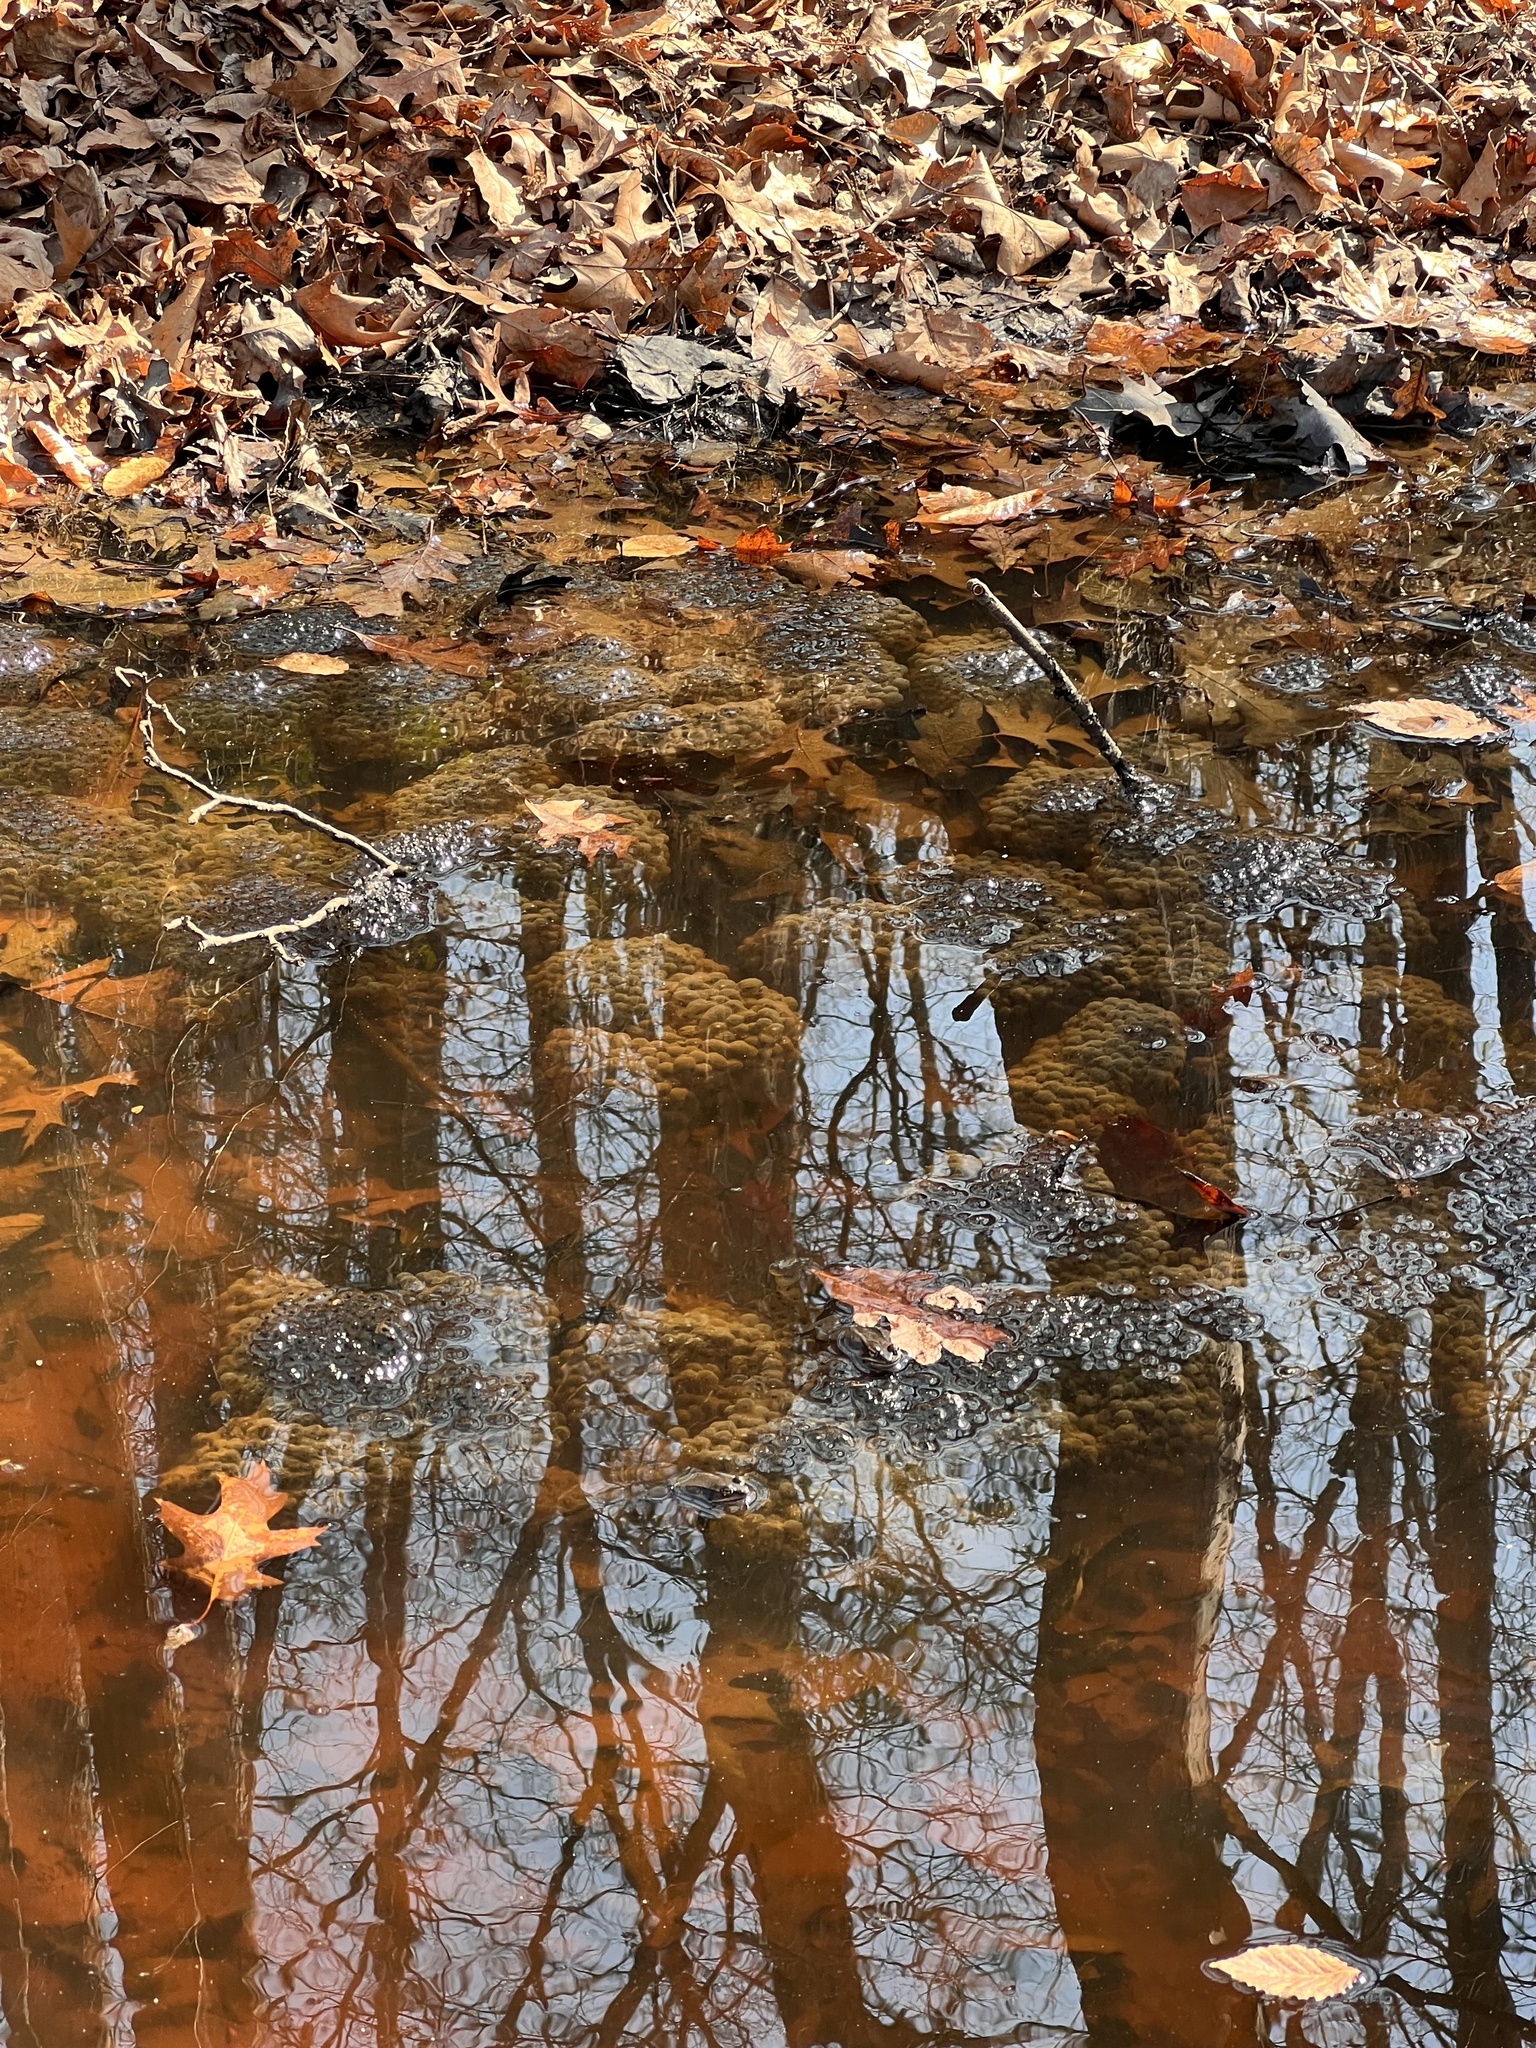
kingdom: Animalia
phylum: Chordata
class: Amphibia
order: Anura
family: Ranidae
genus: Lithobates
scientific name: Lithobates sylvaticus
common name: Wood frog
